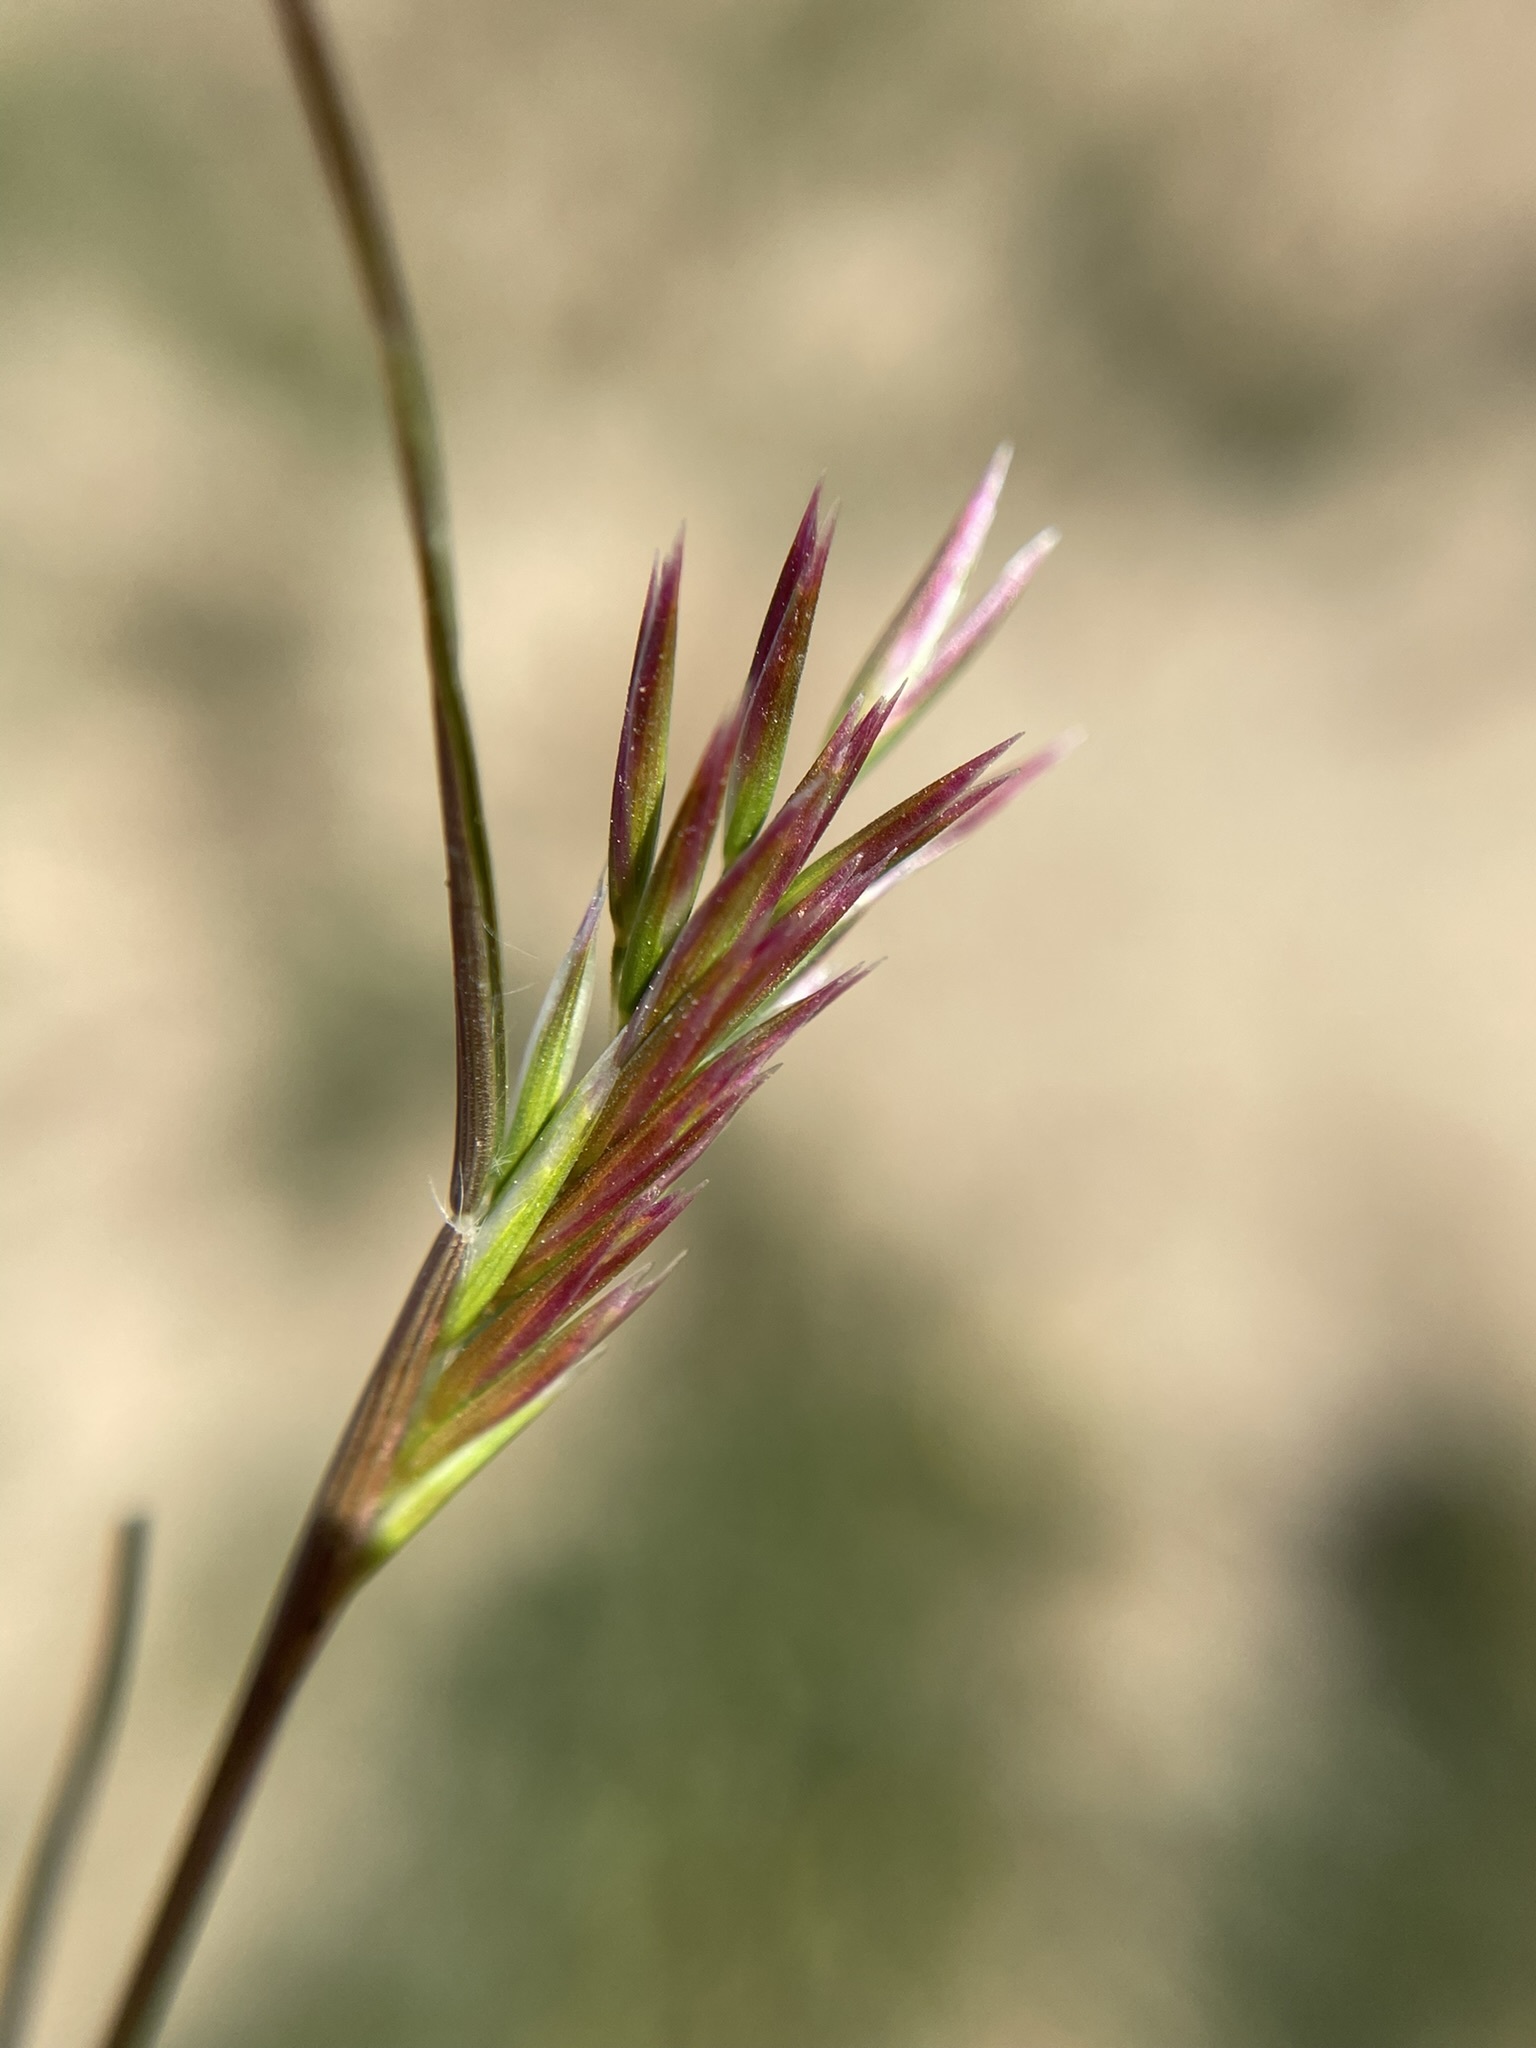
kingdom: Plantae
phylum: Tracheophyta
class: Liliopsida
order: Poales
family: Poaceae
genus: Schismus
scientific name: Schismus arabicus
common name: Arabian schismus
